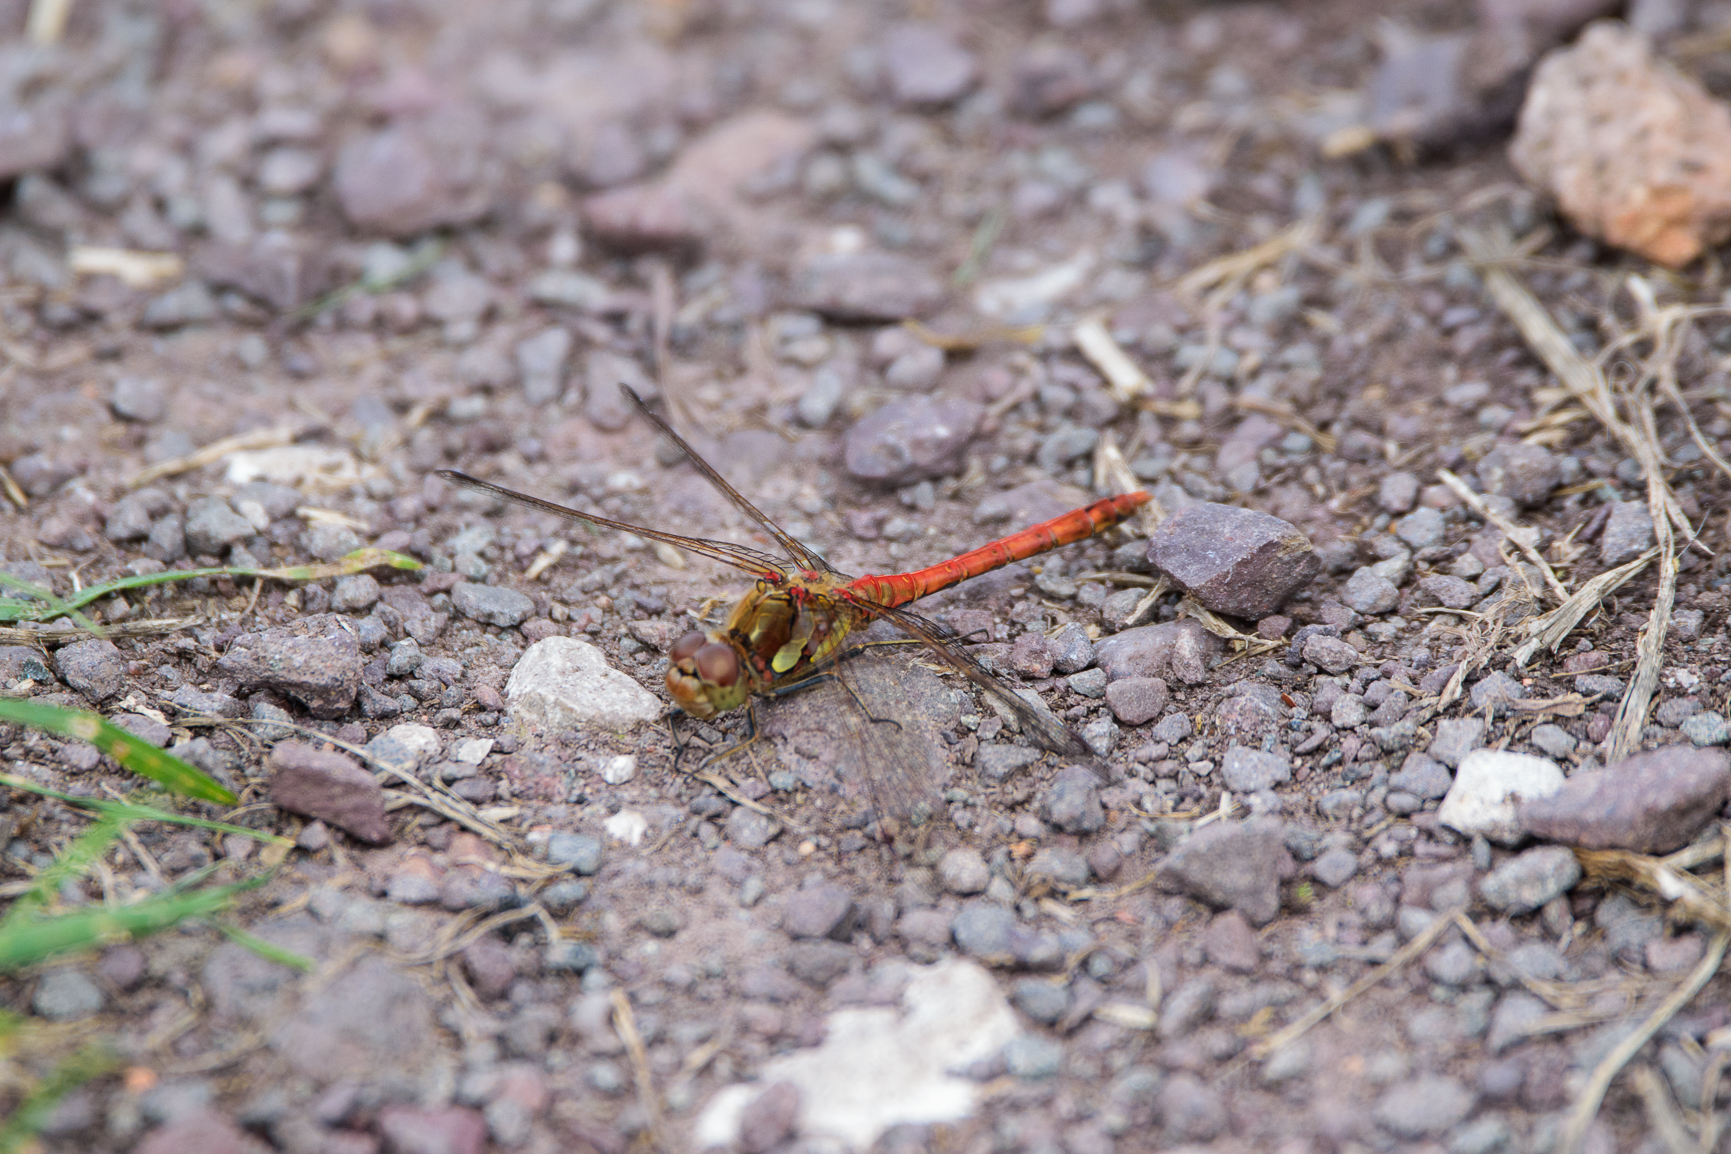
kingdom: Animalia
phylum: Arthropoda
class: Insecta
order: Odonata
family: Libellulidae
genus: Sympetrum
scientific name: Sympetrum striolatum
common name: Common darter
